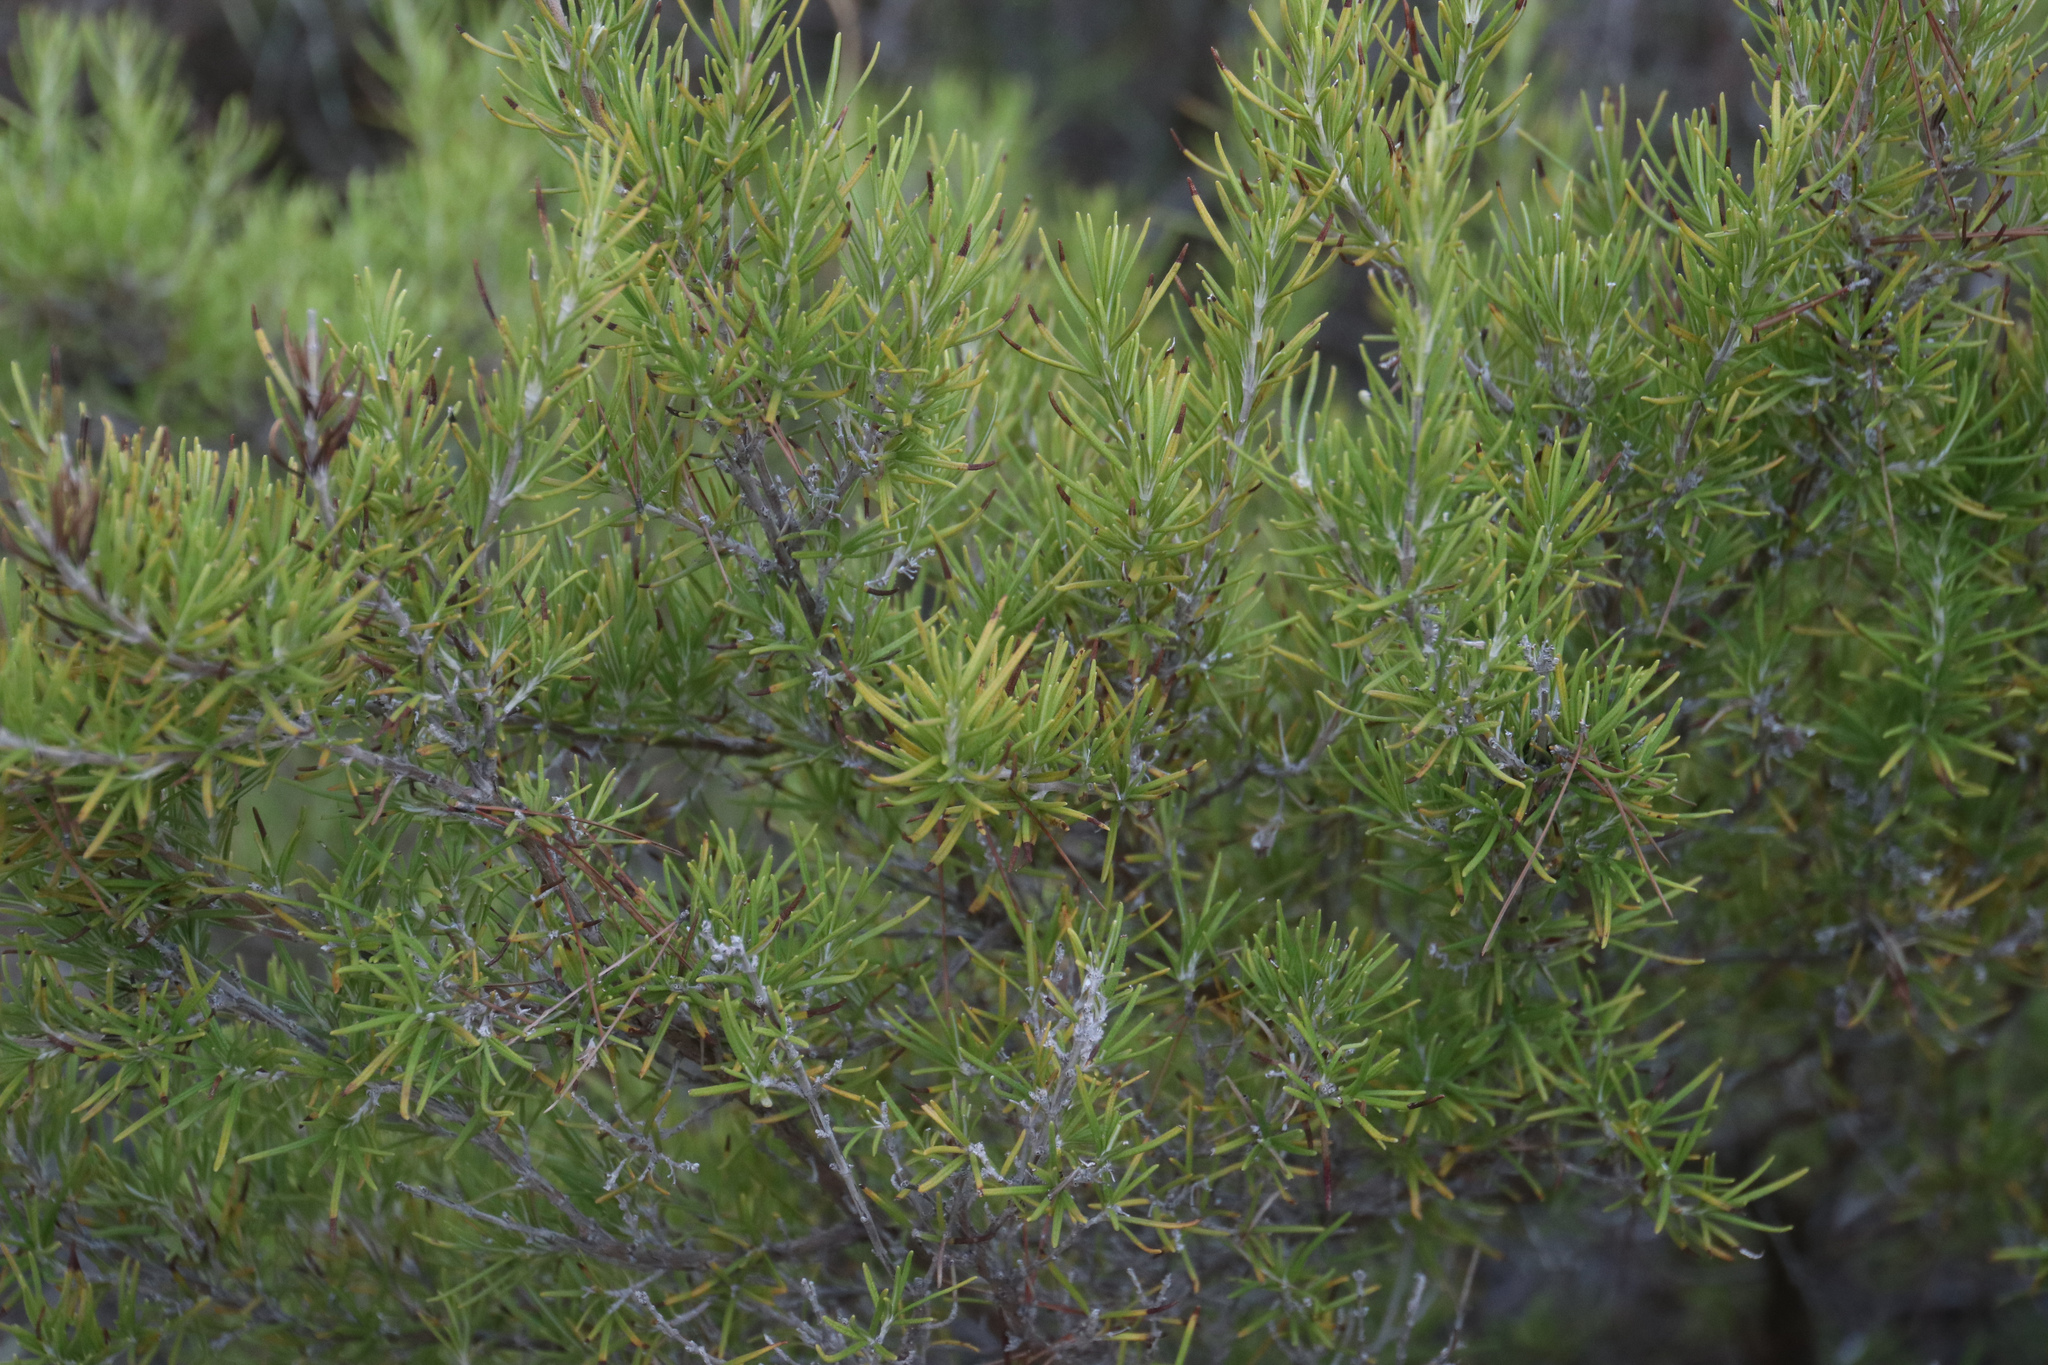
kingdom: Plantae
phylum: Tracheophyta
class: Magnoliopsida
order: Lamiales
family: Lamiaceae
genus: Salvia
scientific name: Salvia rosmarinus
